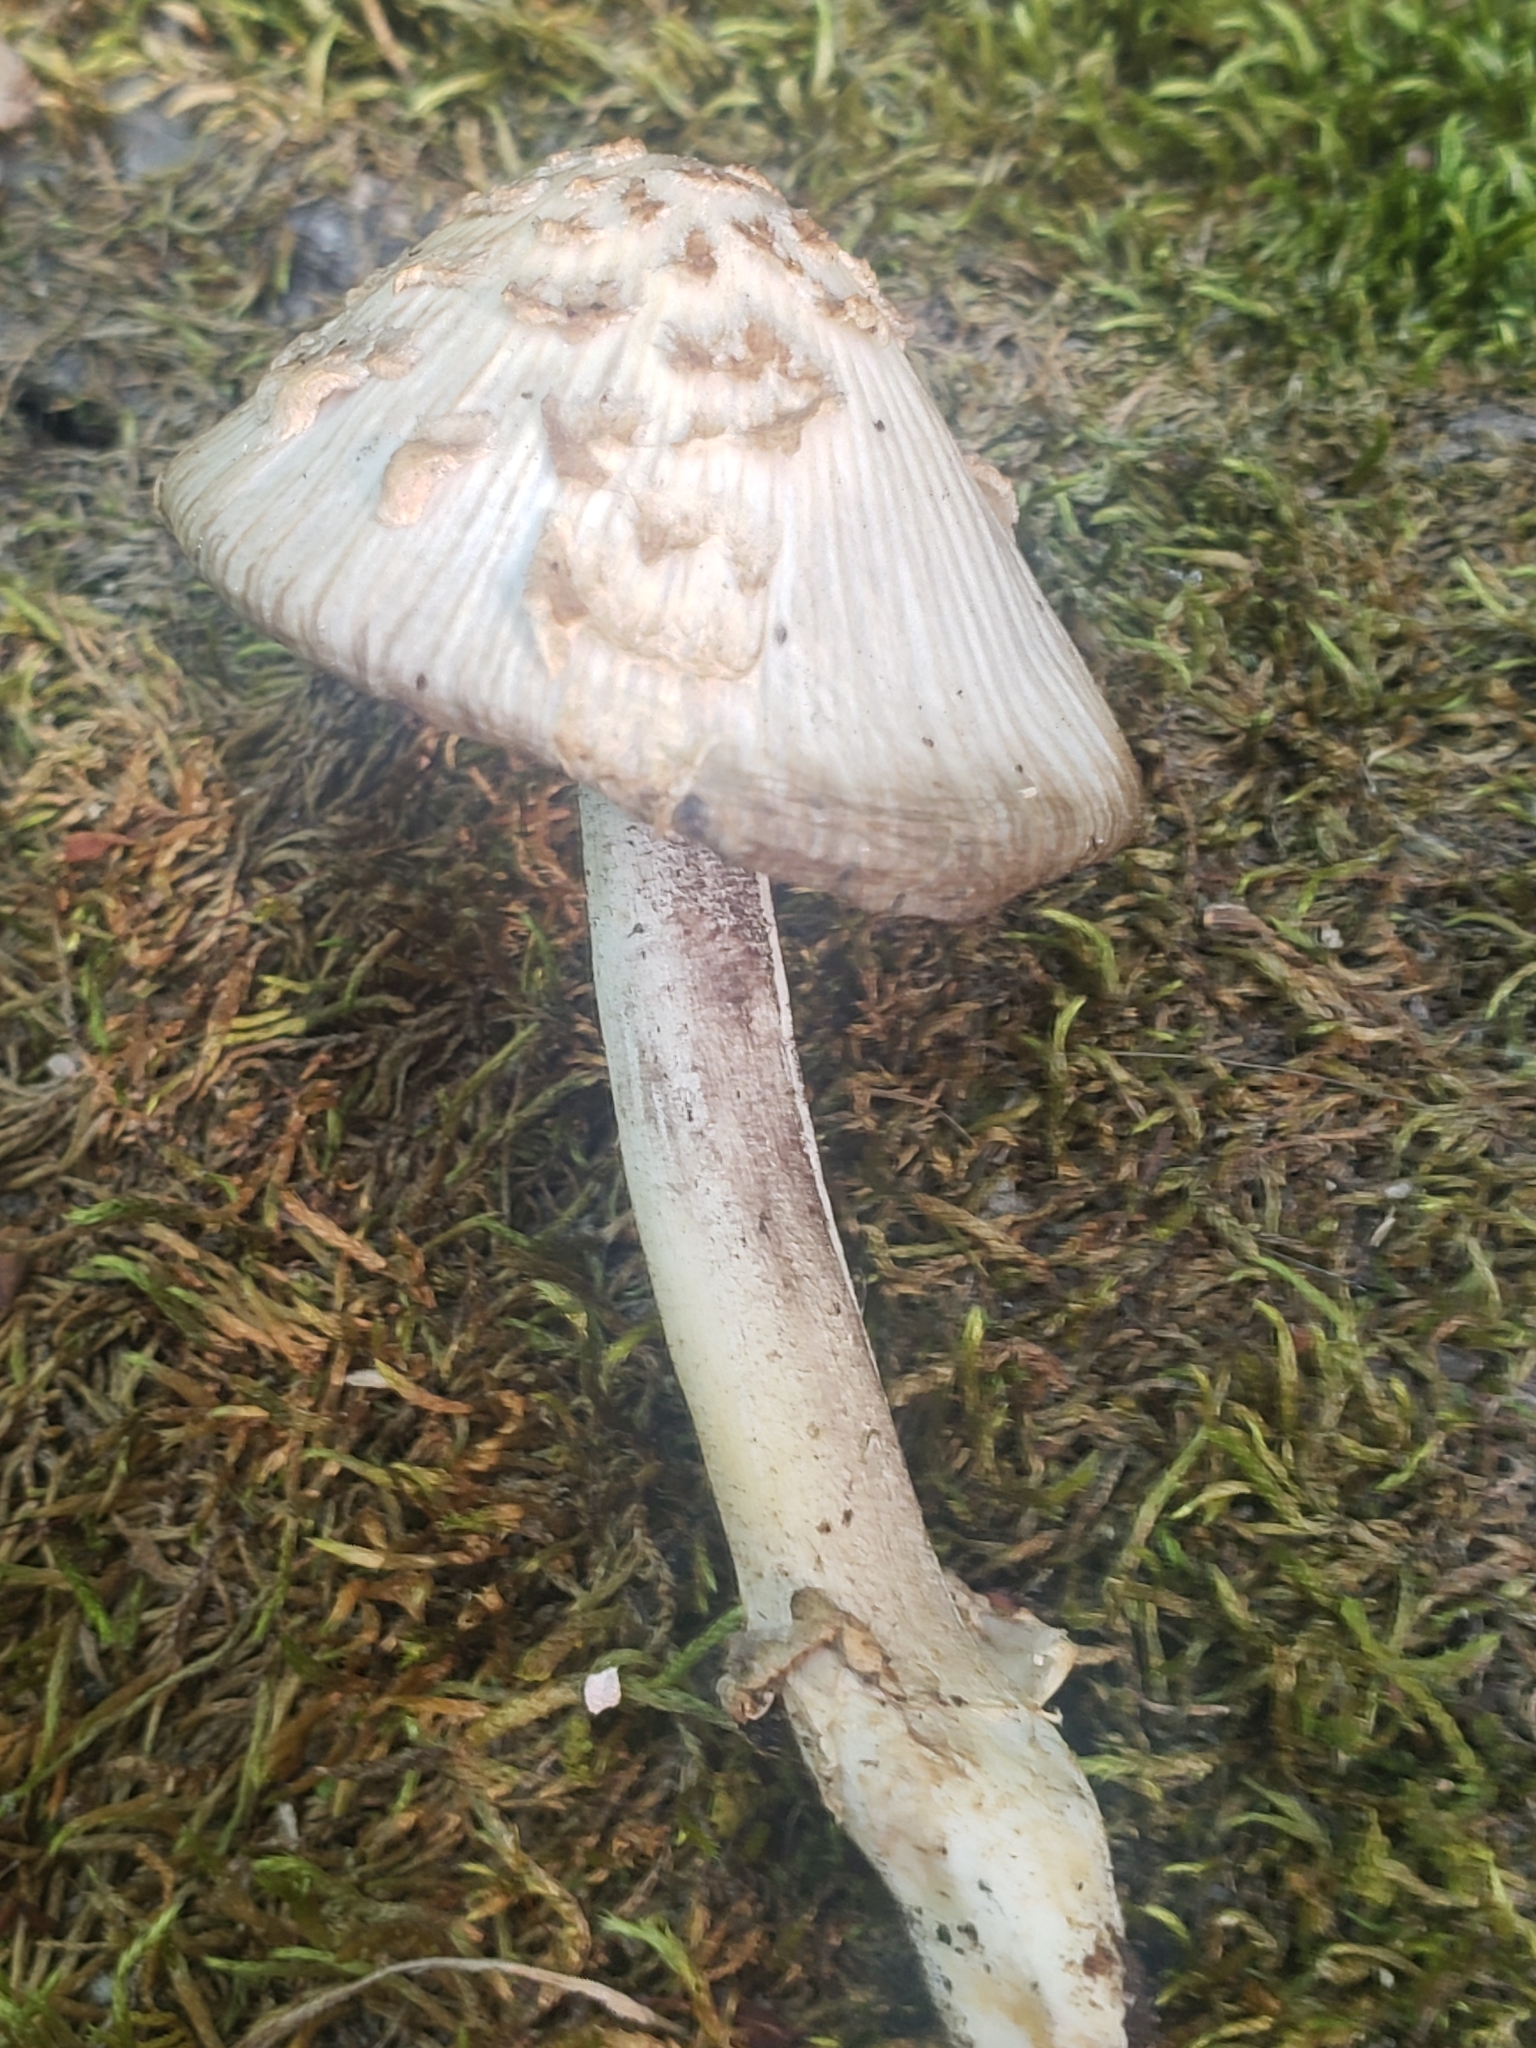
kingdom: Fungi
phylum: Basidiomycota
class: Agaricomycetes
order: Agaricales
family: Psathyrellaceae
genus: Coprinopsis
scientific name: Coprinopsis variegata
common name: Scaly ink cap
